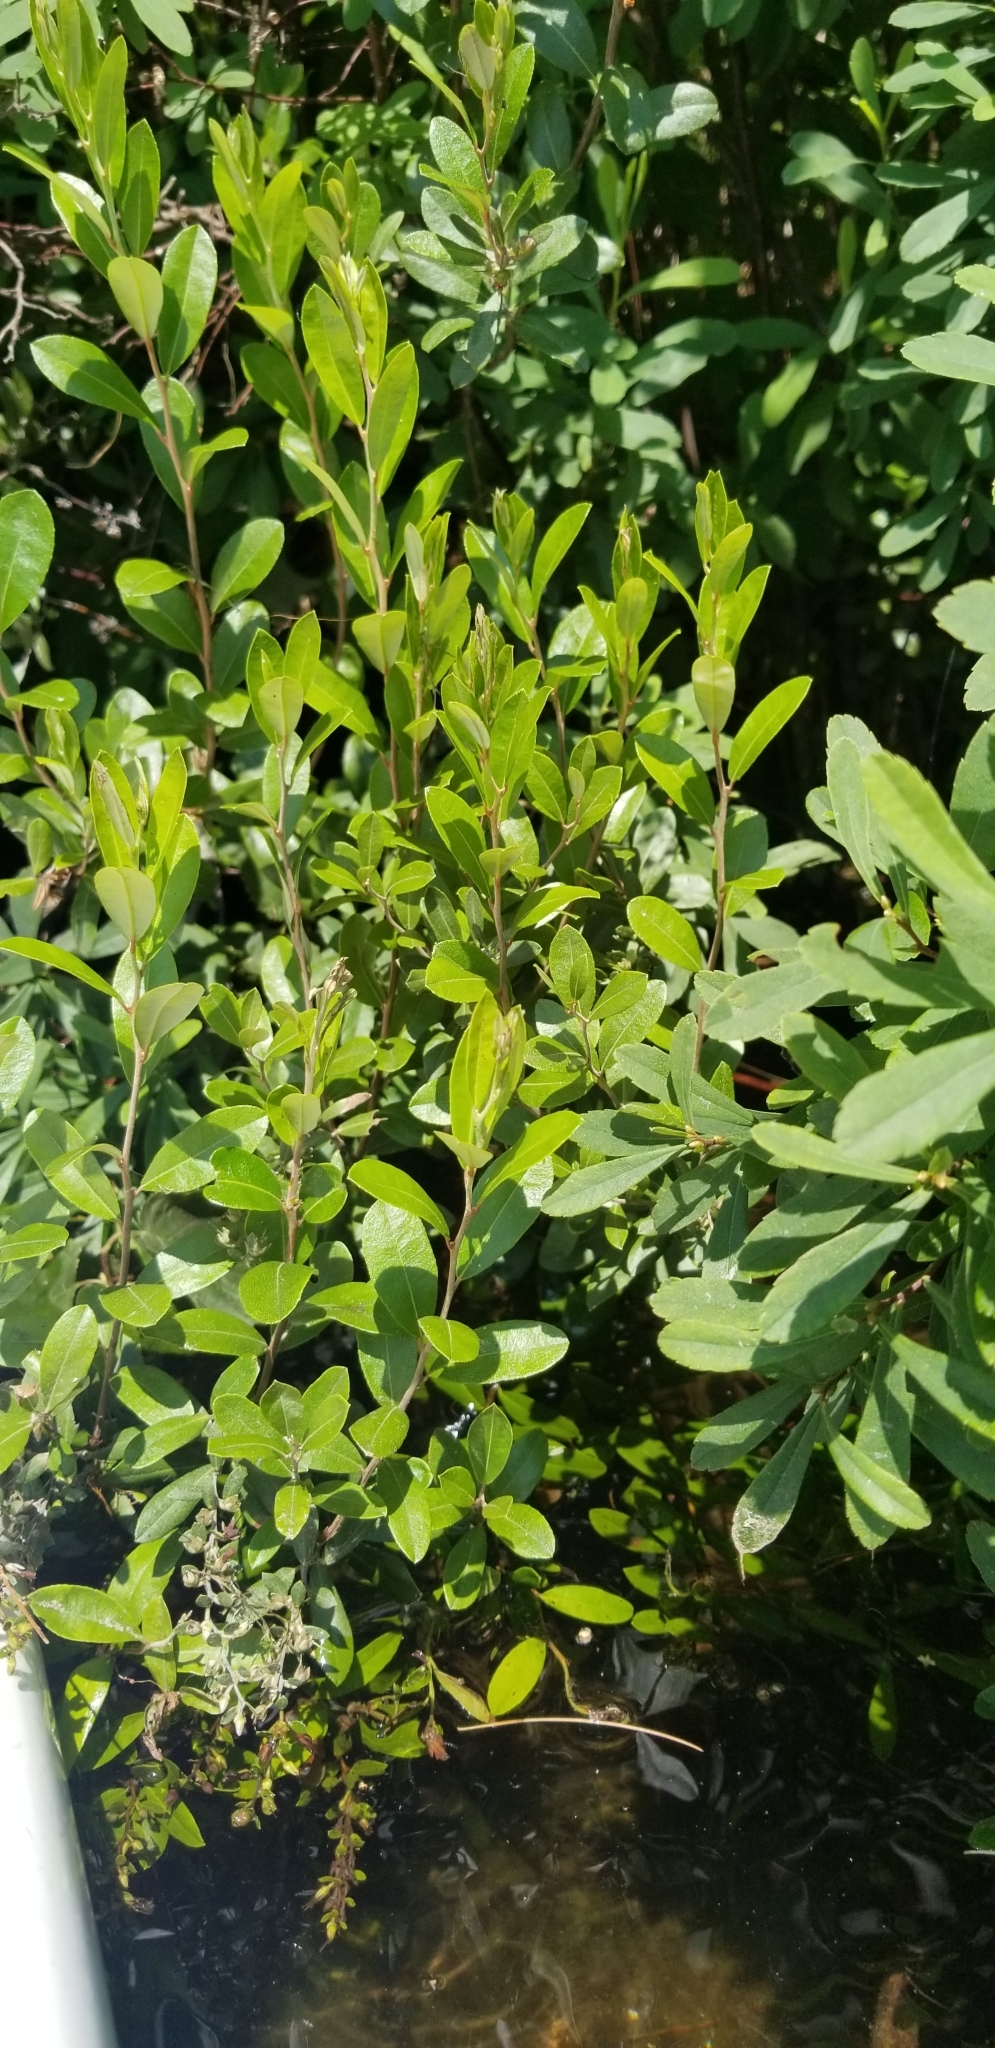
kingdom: Plantae
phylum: Tracheophyta
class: Magnoliopsida
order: Ericales
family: Ericaceae
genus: Chamaedaphne
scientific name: Chamaedaphne calyculata
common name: Leatherleaf
